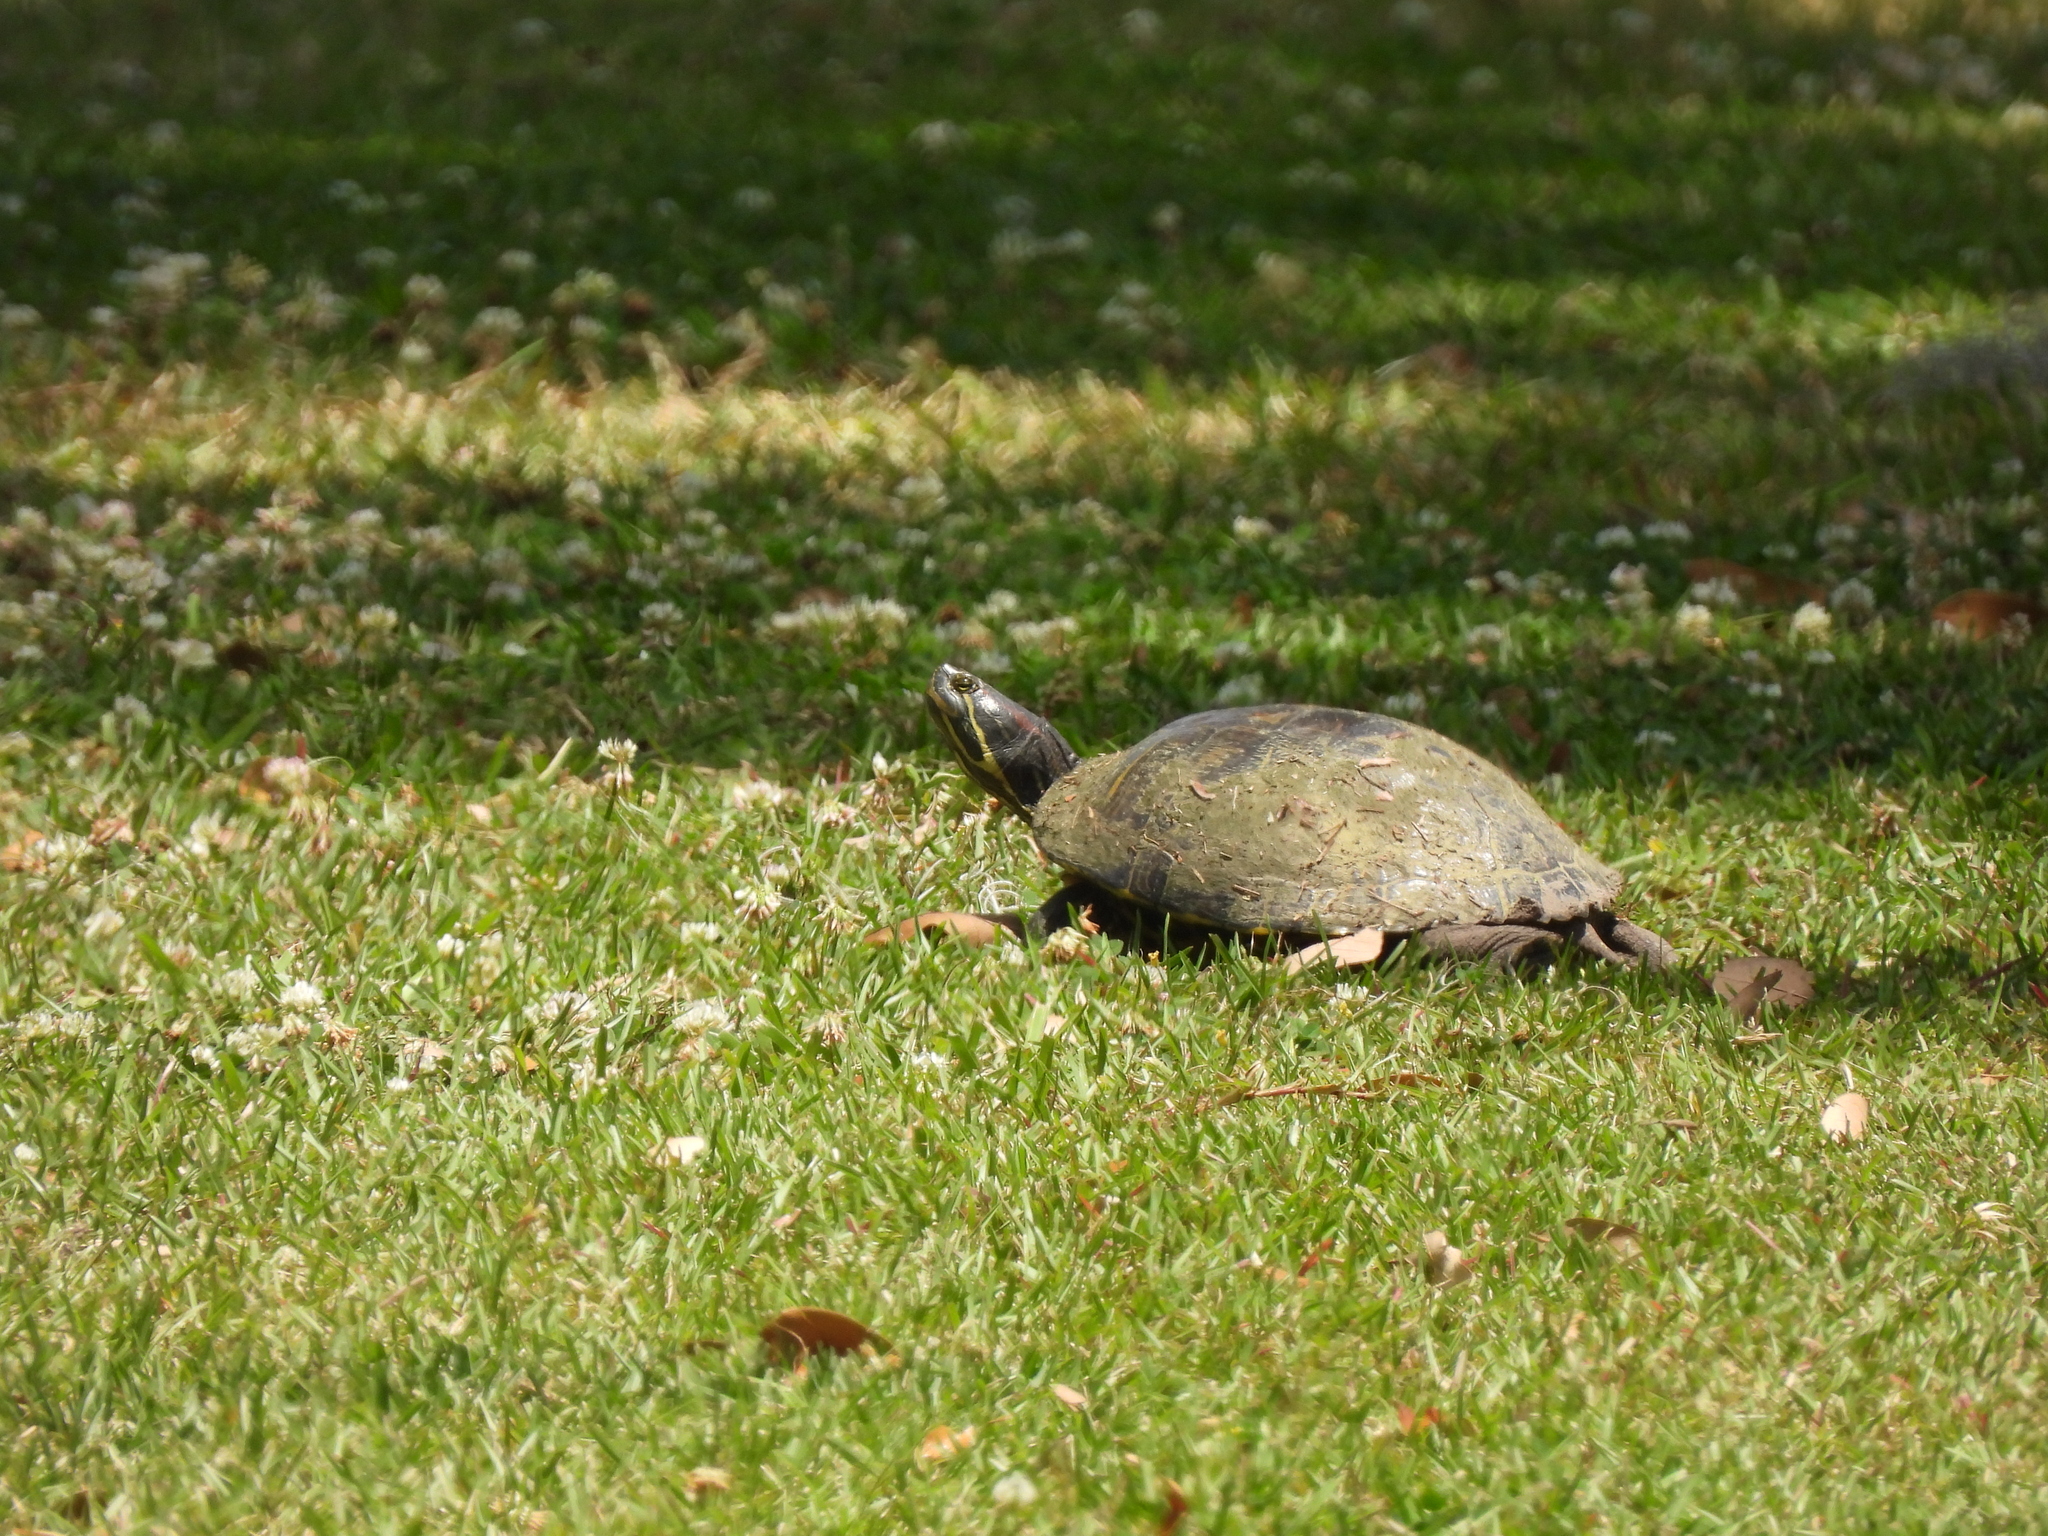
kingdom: Animalia
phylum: Chordata
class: Testudines
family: Emydidae
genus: Trachemys
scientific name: Trachemys scripta
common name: Slider
